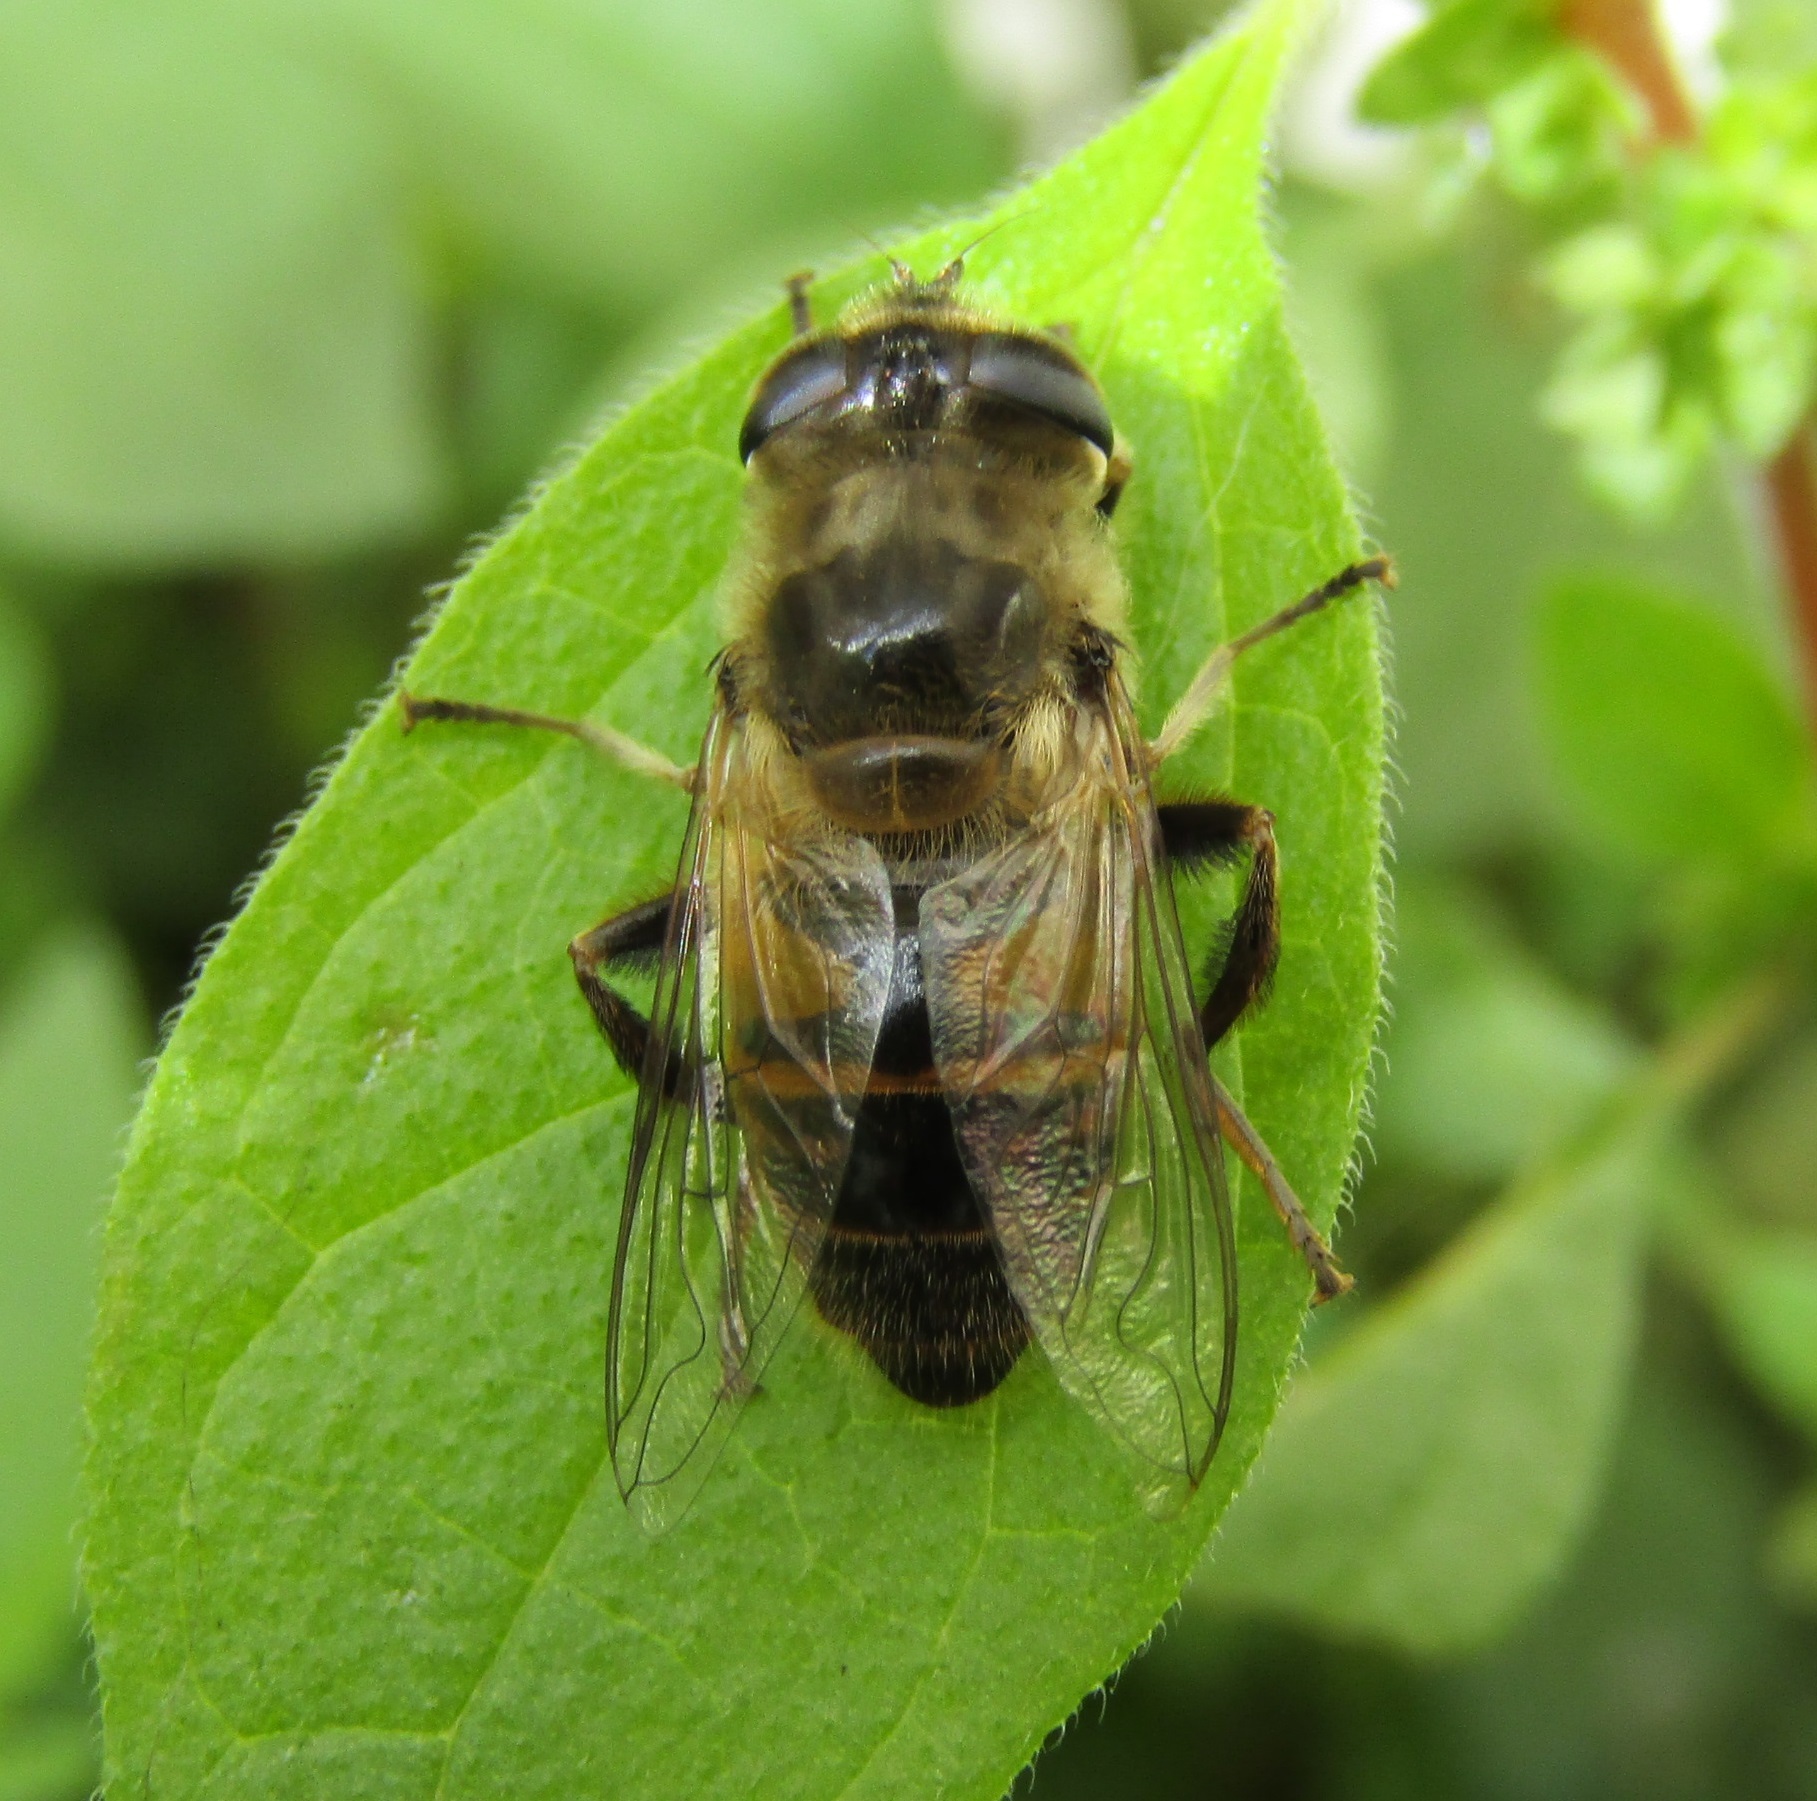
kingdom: Animalia
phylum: Arthropoda
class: Insecta
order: Diptera
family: Syrphidae
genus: Eristalis
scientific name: Eristalis tenax
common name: Drone fly
